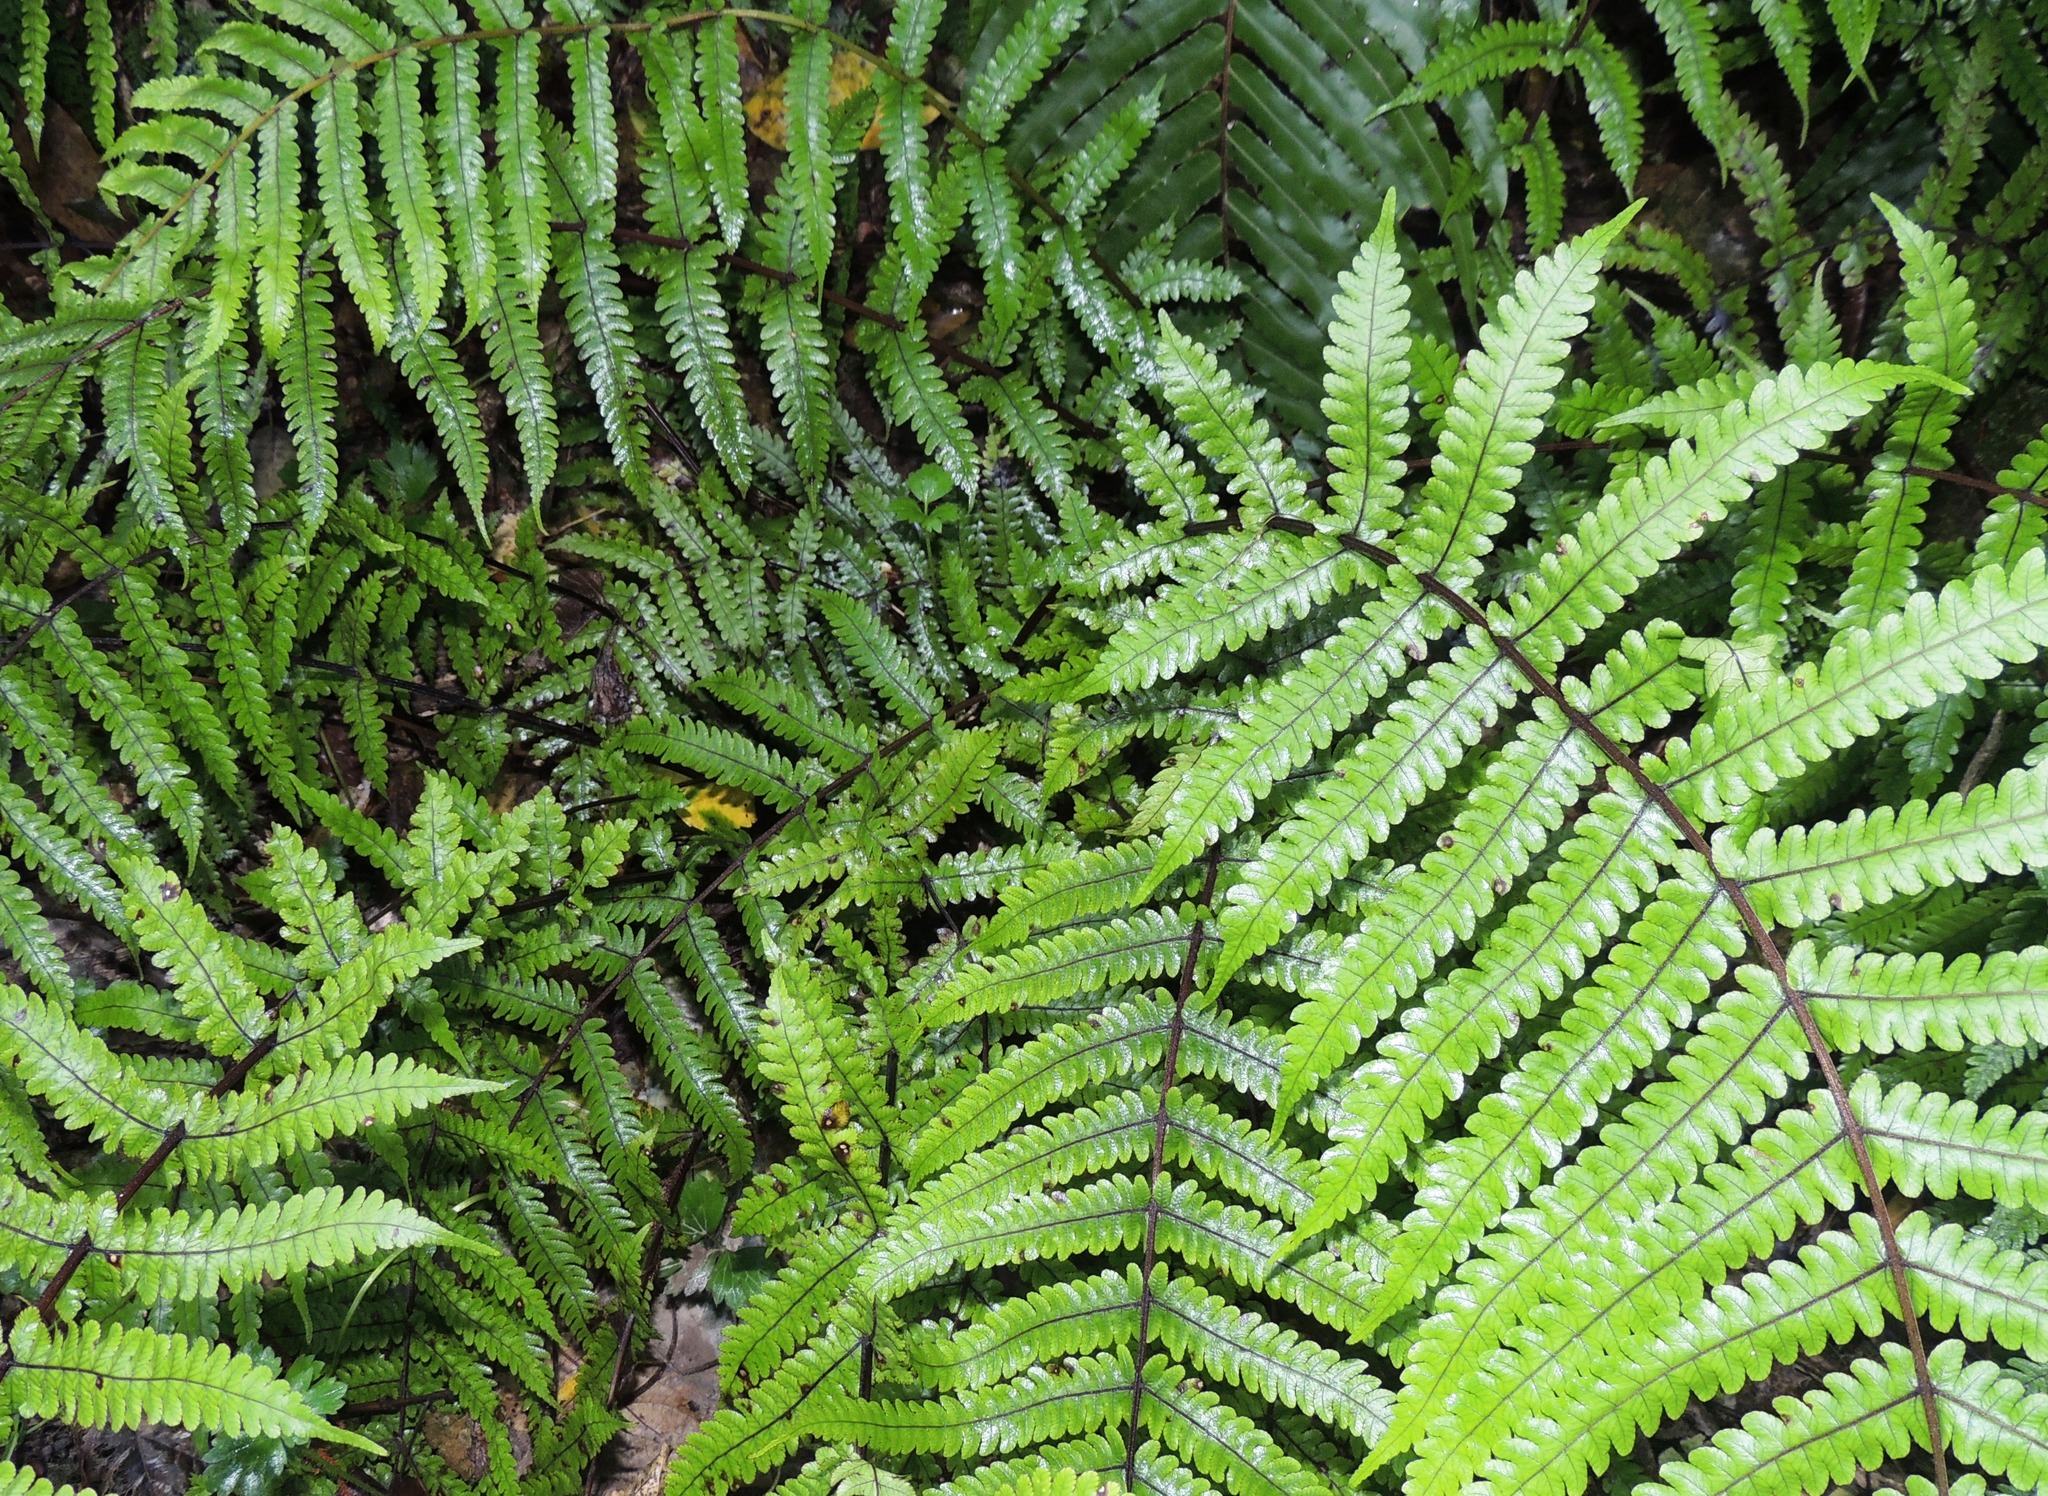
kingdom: Plantae
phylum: Tracheophyta
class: Polypodiopsida
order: Polypodiales
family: Thelypteridaceae
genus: Pakau
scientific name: Pakau pennigera
